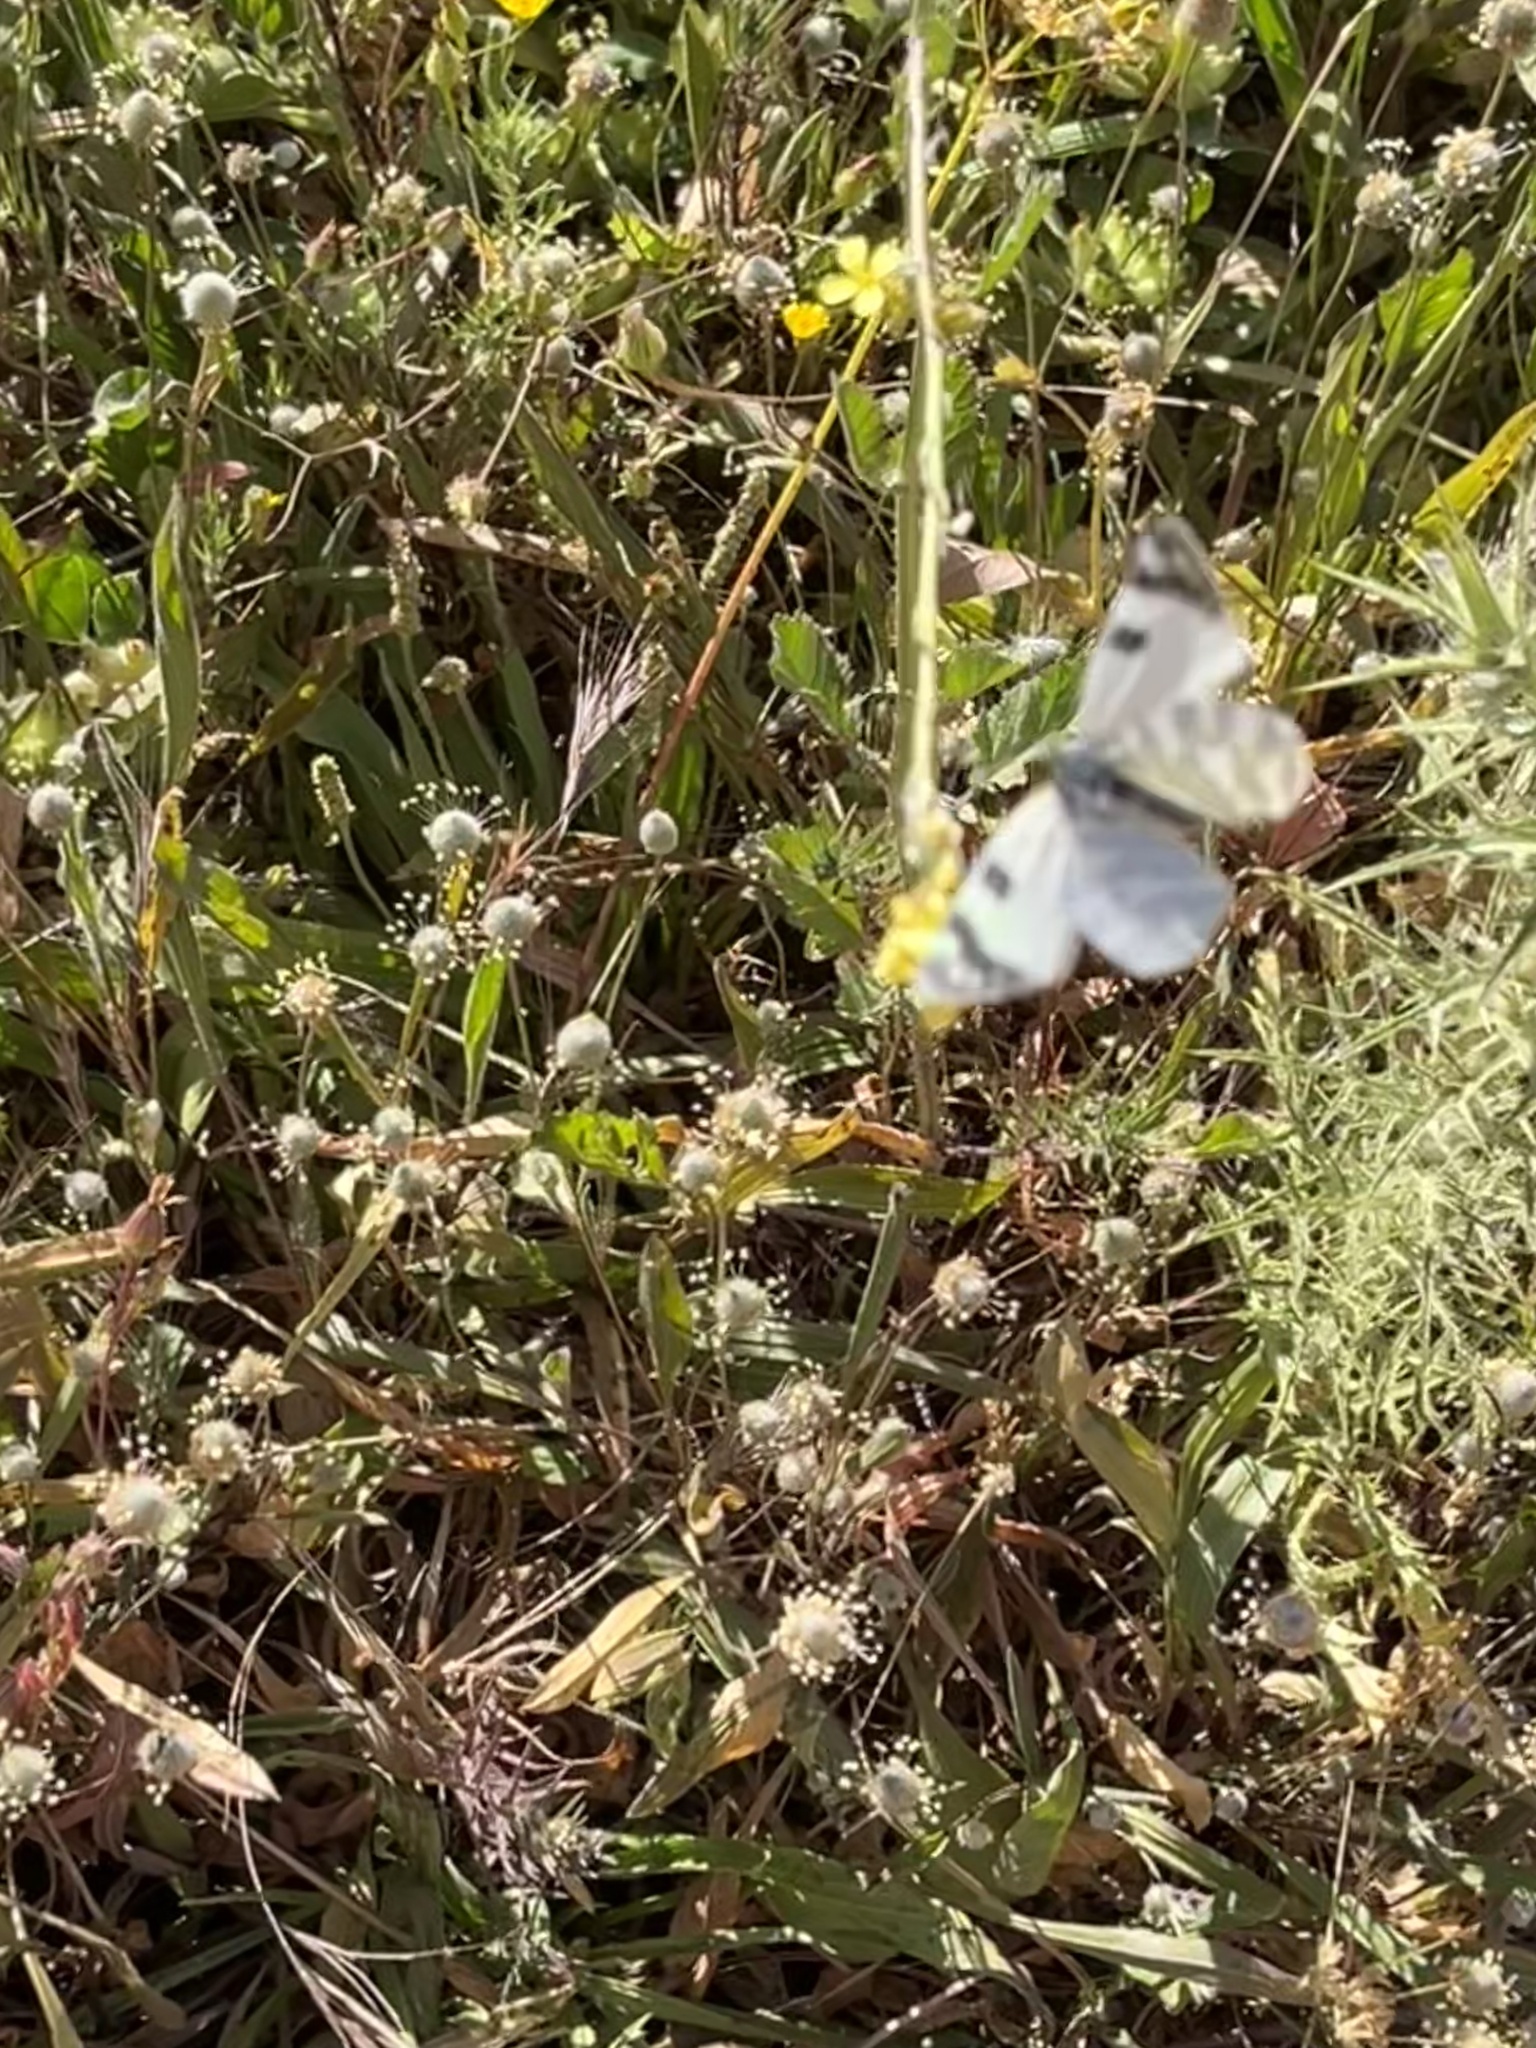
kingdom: Animalia
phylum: Arthropoda
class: Insecta
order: Lepidoptera
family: Pieridae
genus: Euchloe
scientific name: Euchloe belemia
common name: Green-striped white
